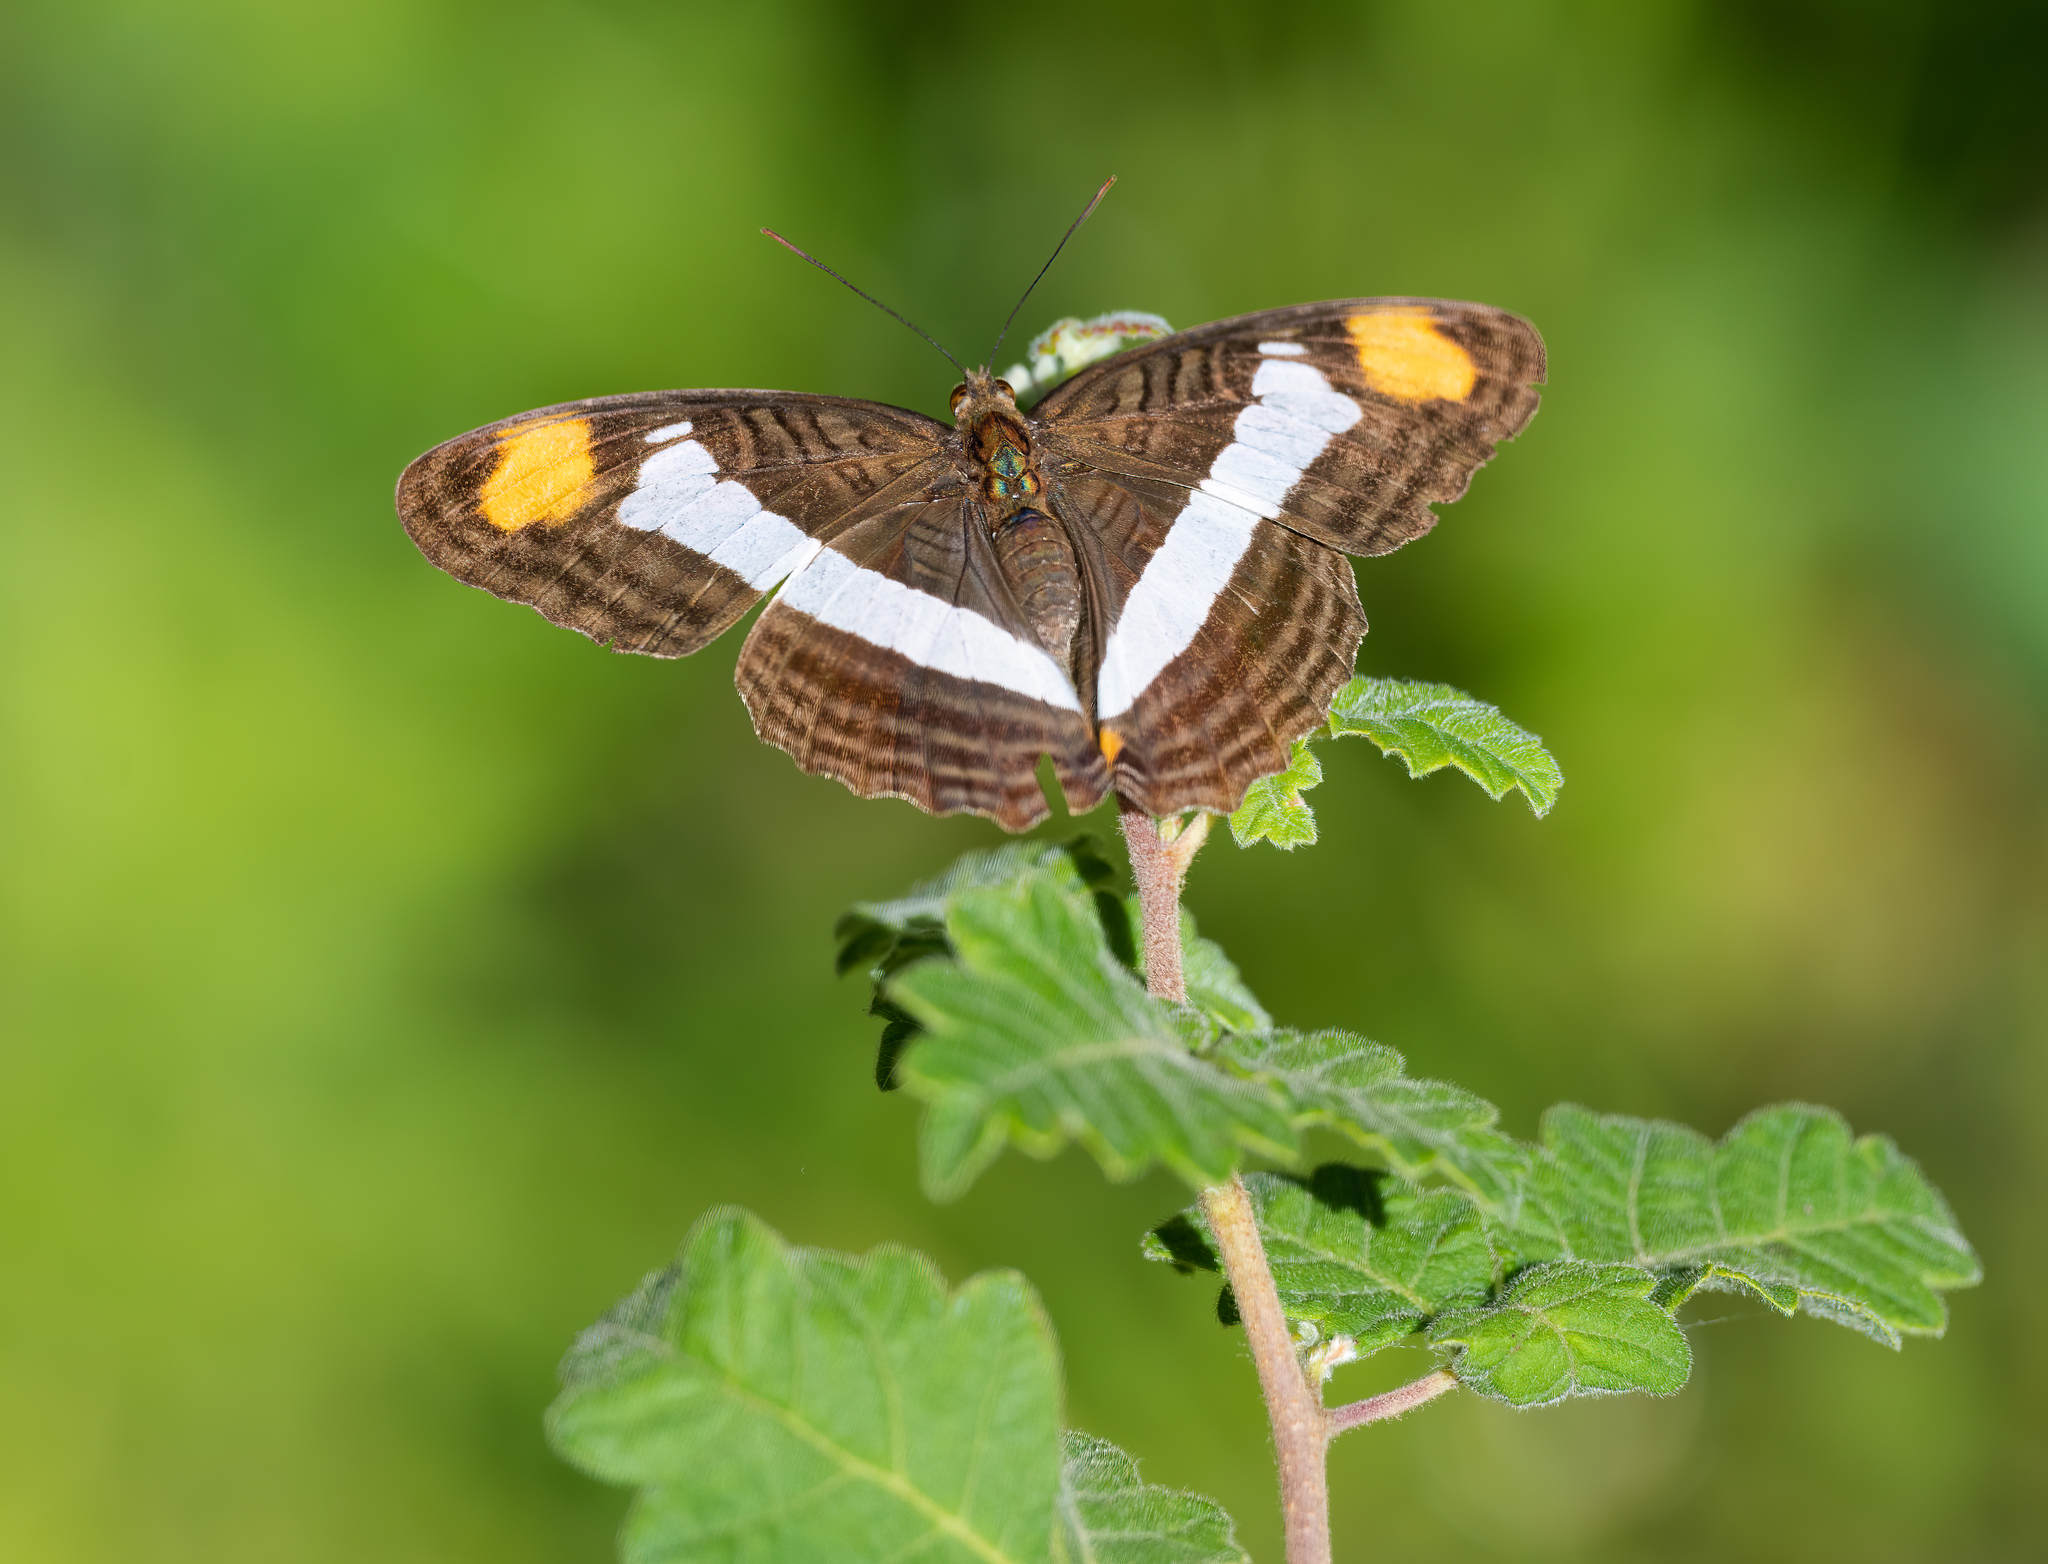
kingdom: Animalia
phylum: Arthropoda
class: Insecta
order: Lepidoptera
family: Nymphalidae
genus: Limenitis
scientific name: Limenitis fessonia
